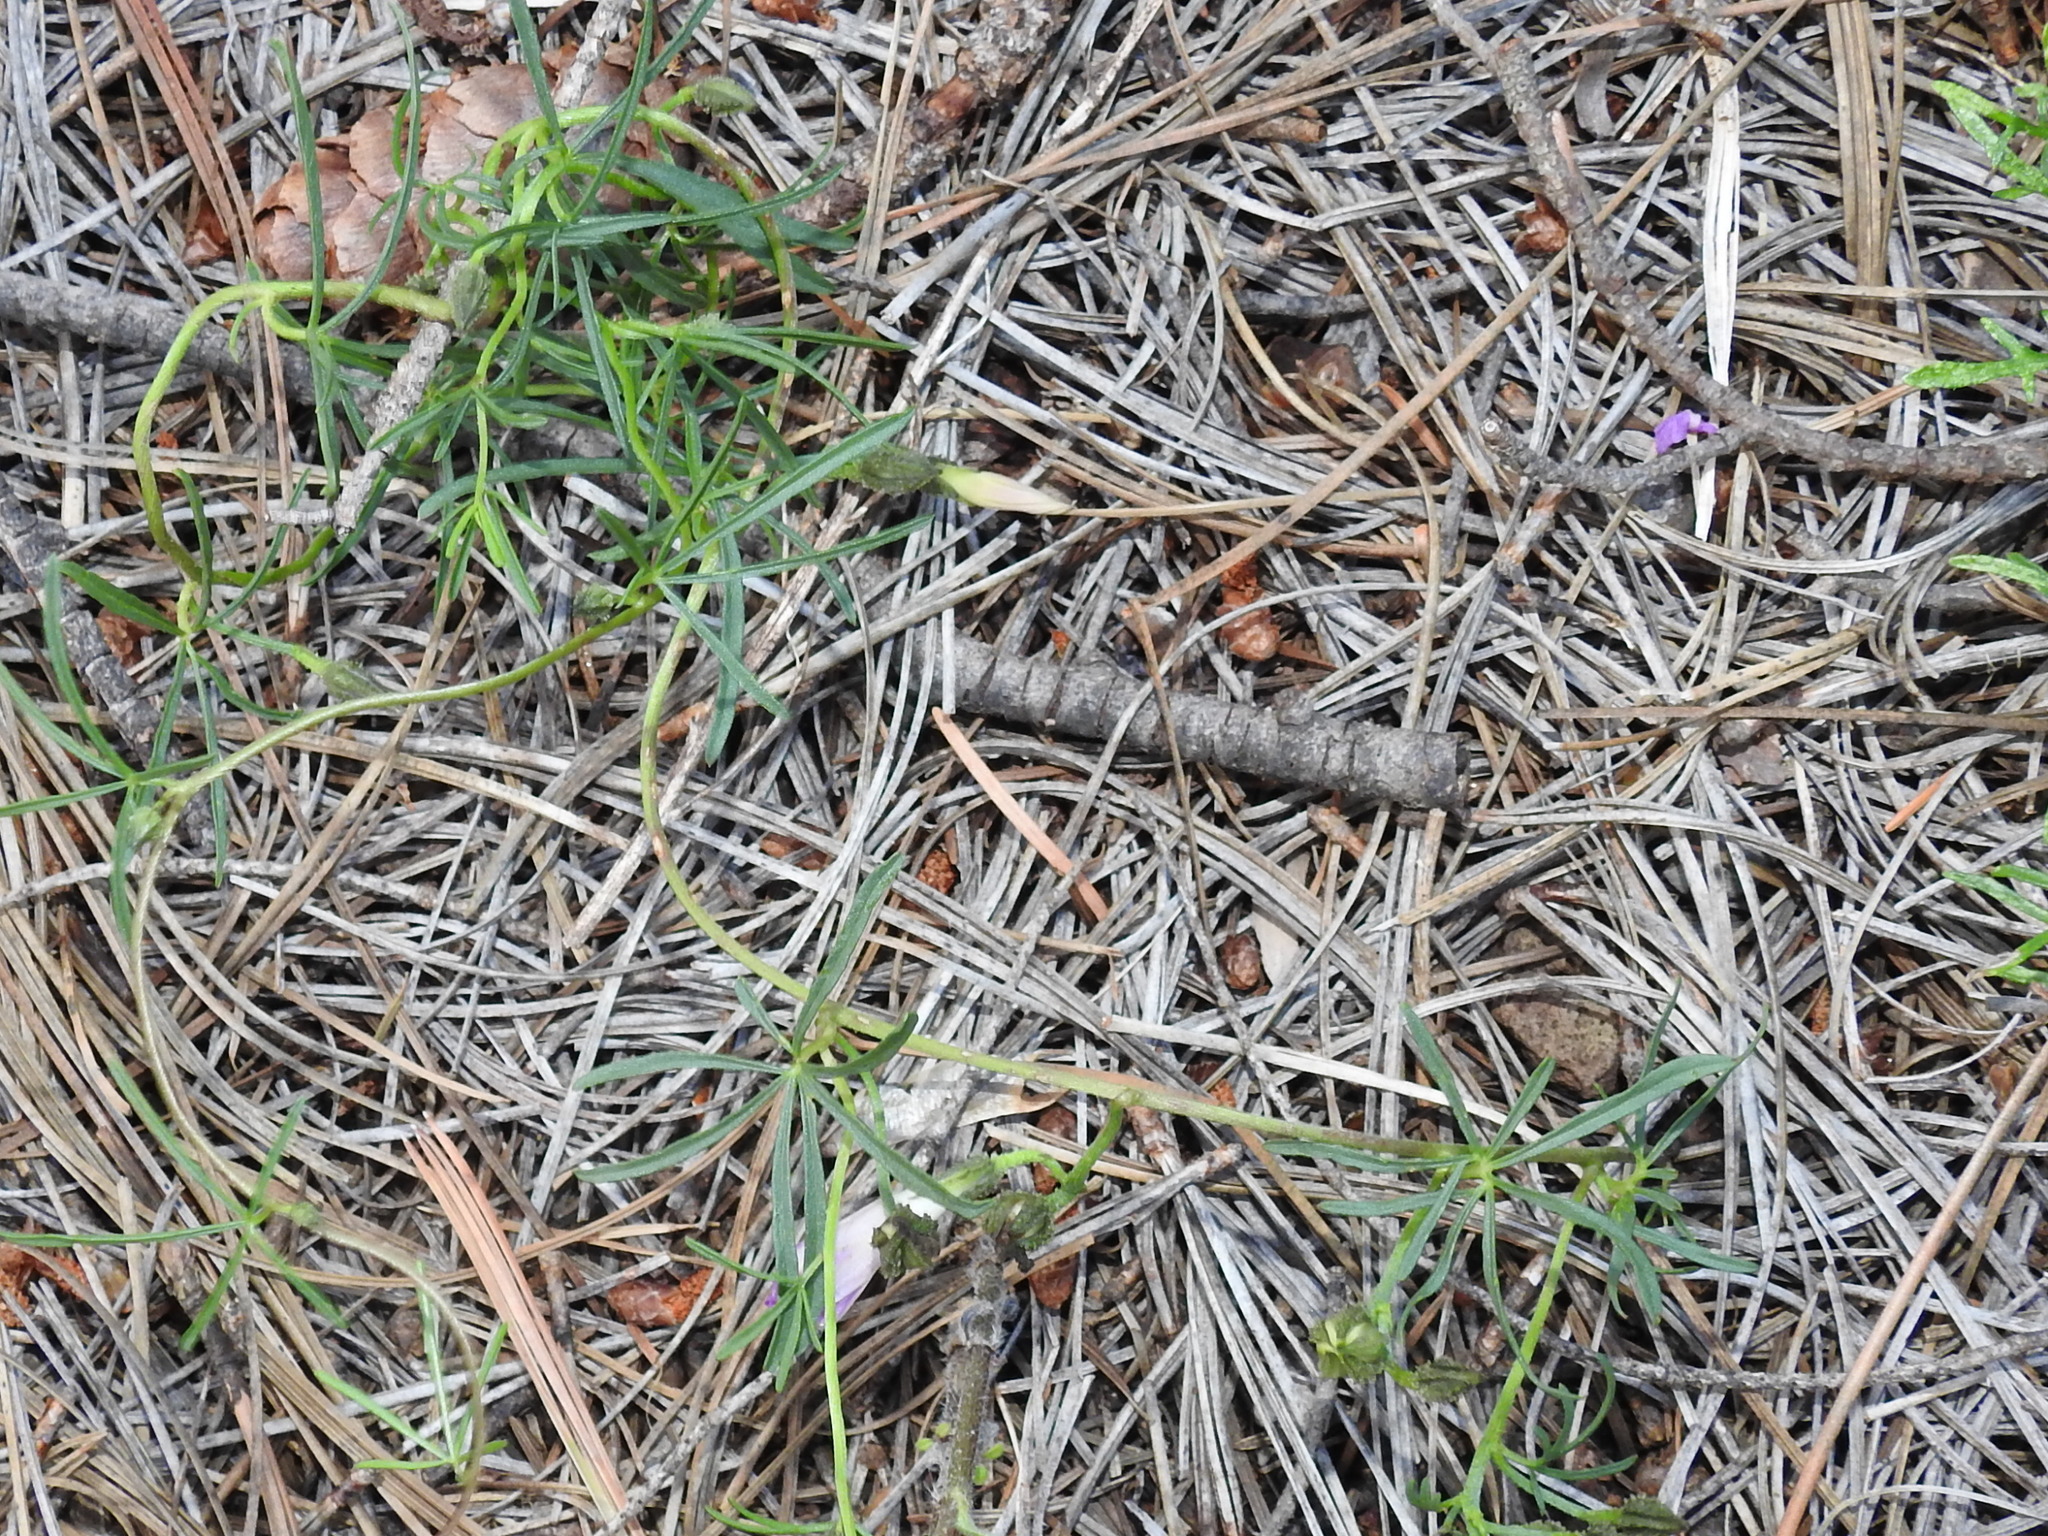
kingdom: Plantae
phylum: Tracheophyta
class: Magnoliopsida
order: Solanales
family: Convolvulaceae
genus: Ipomoea
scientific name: Ipomoea plummerae
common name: Plummer's morning-glory
